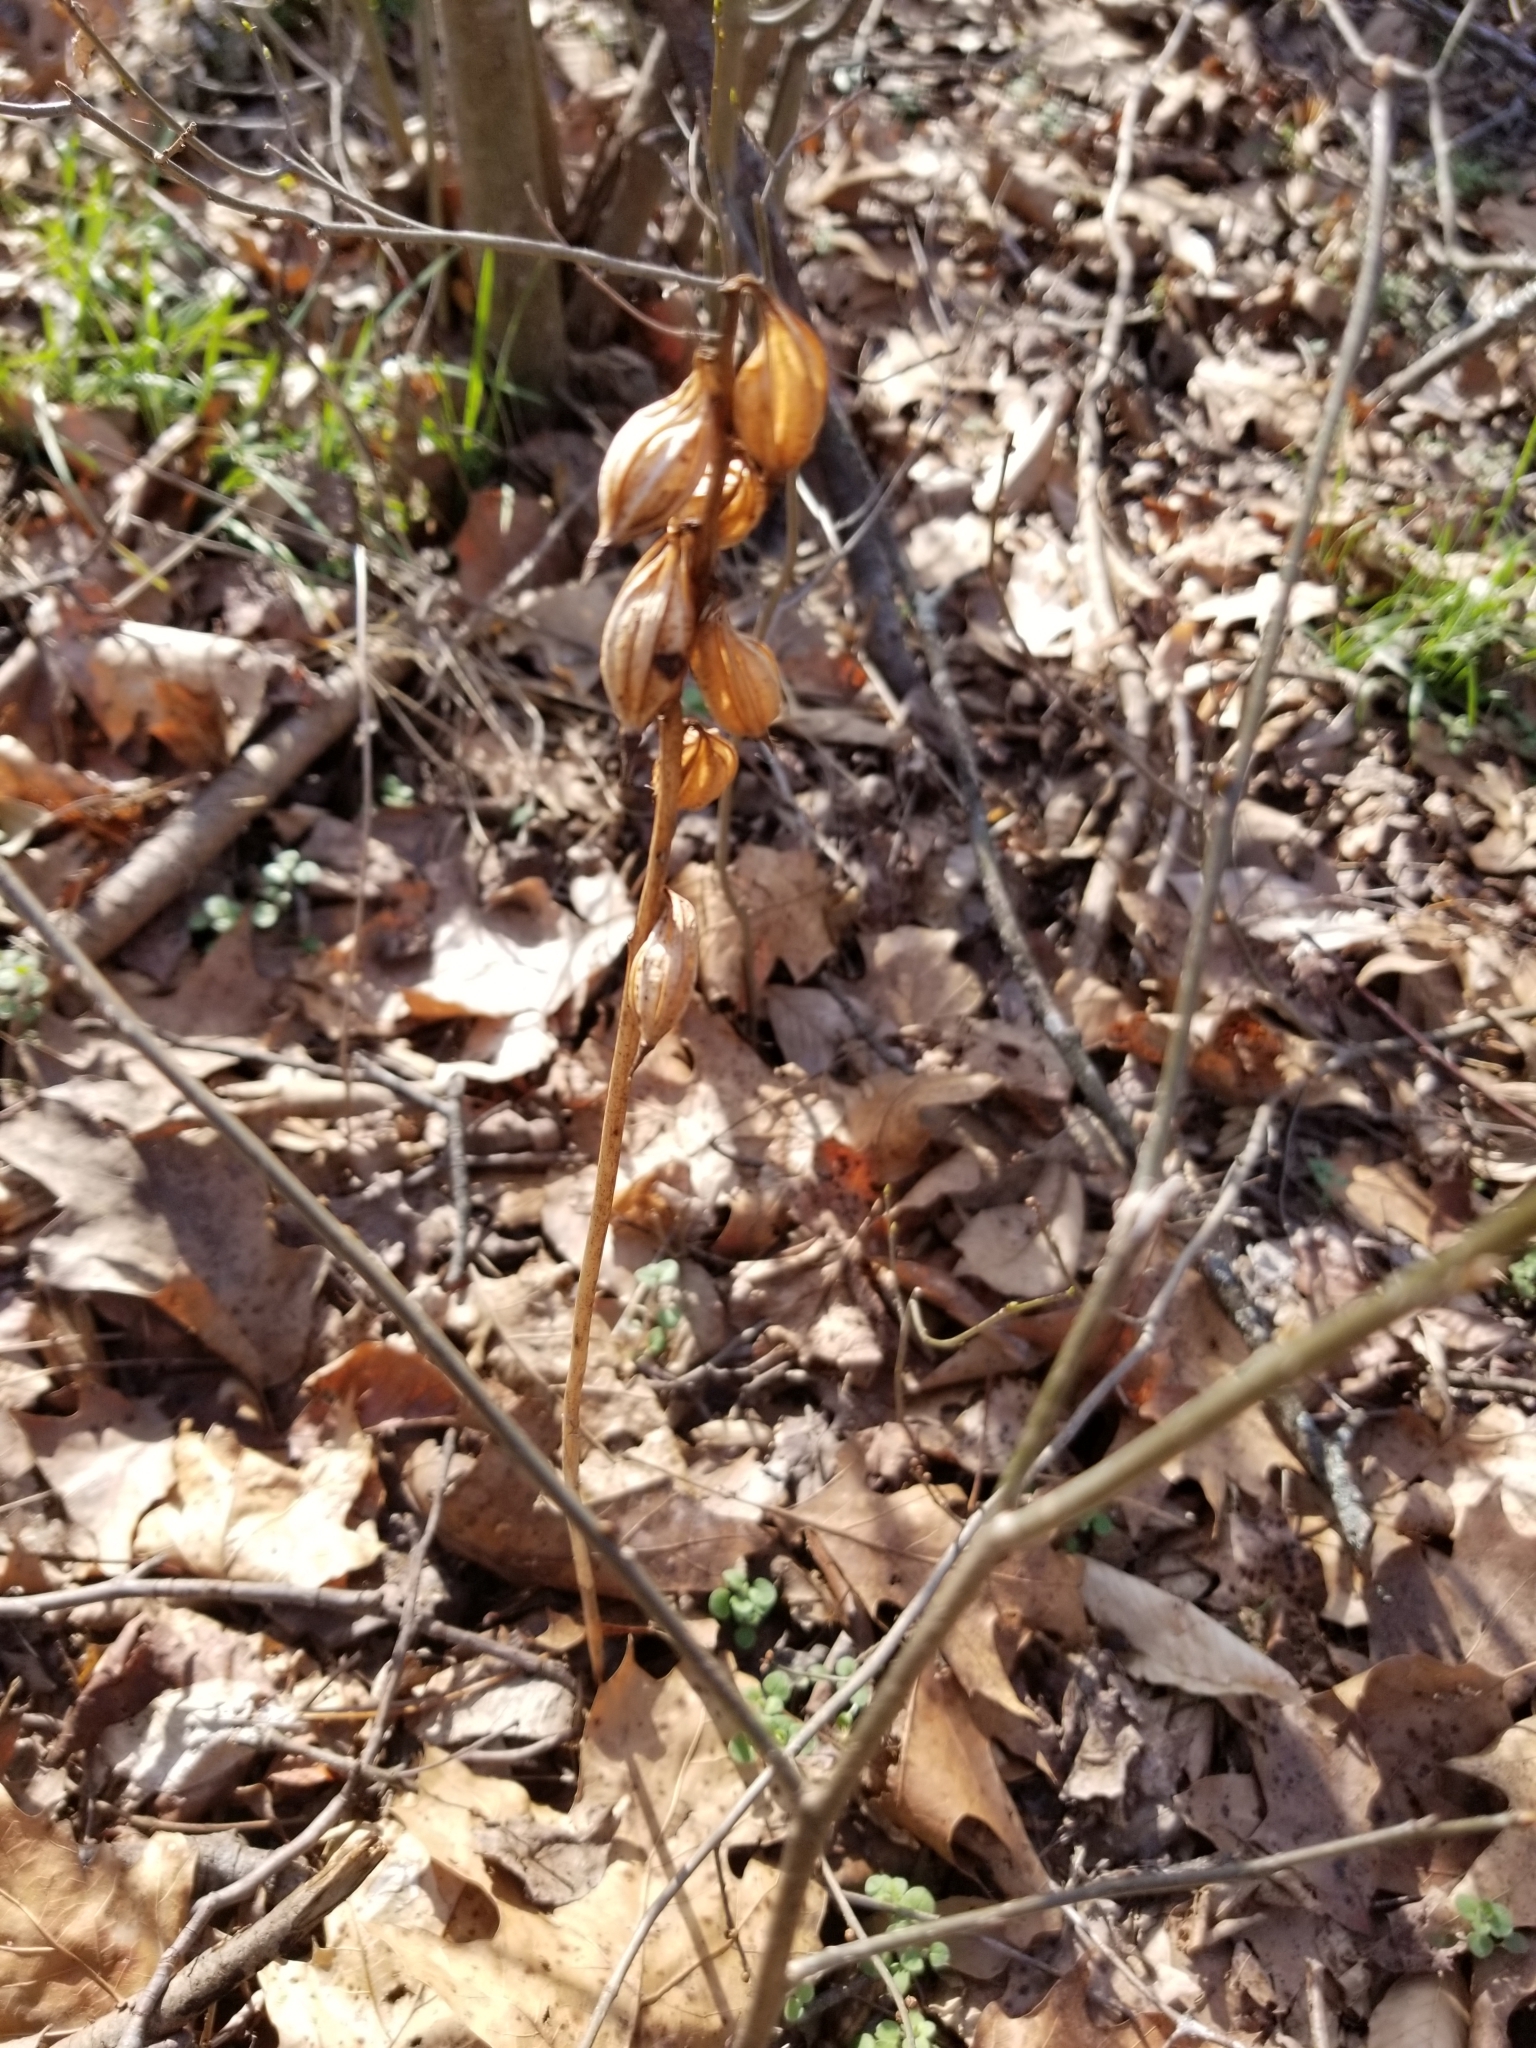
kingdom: Plantae
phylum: Tracheophyta
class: Liliopsida
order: Asparagales
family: Orchidaceae
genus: Aplectrum
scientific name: Aplectrum hyemale
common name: Adam-and-eve
